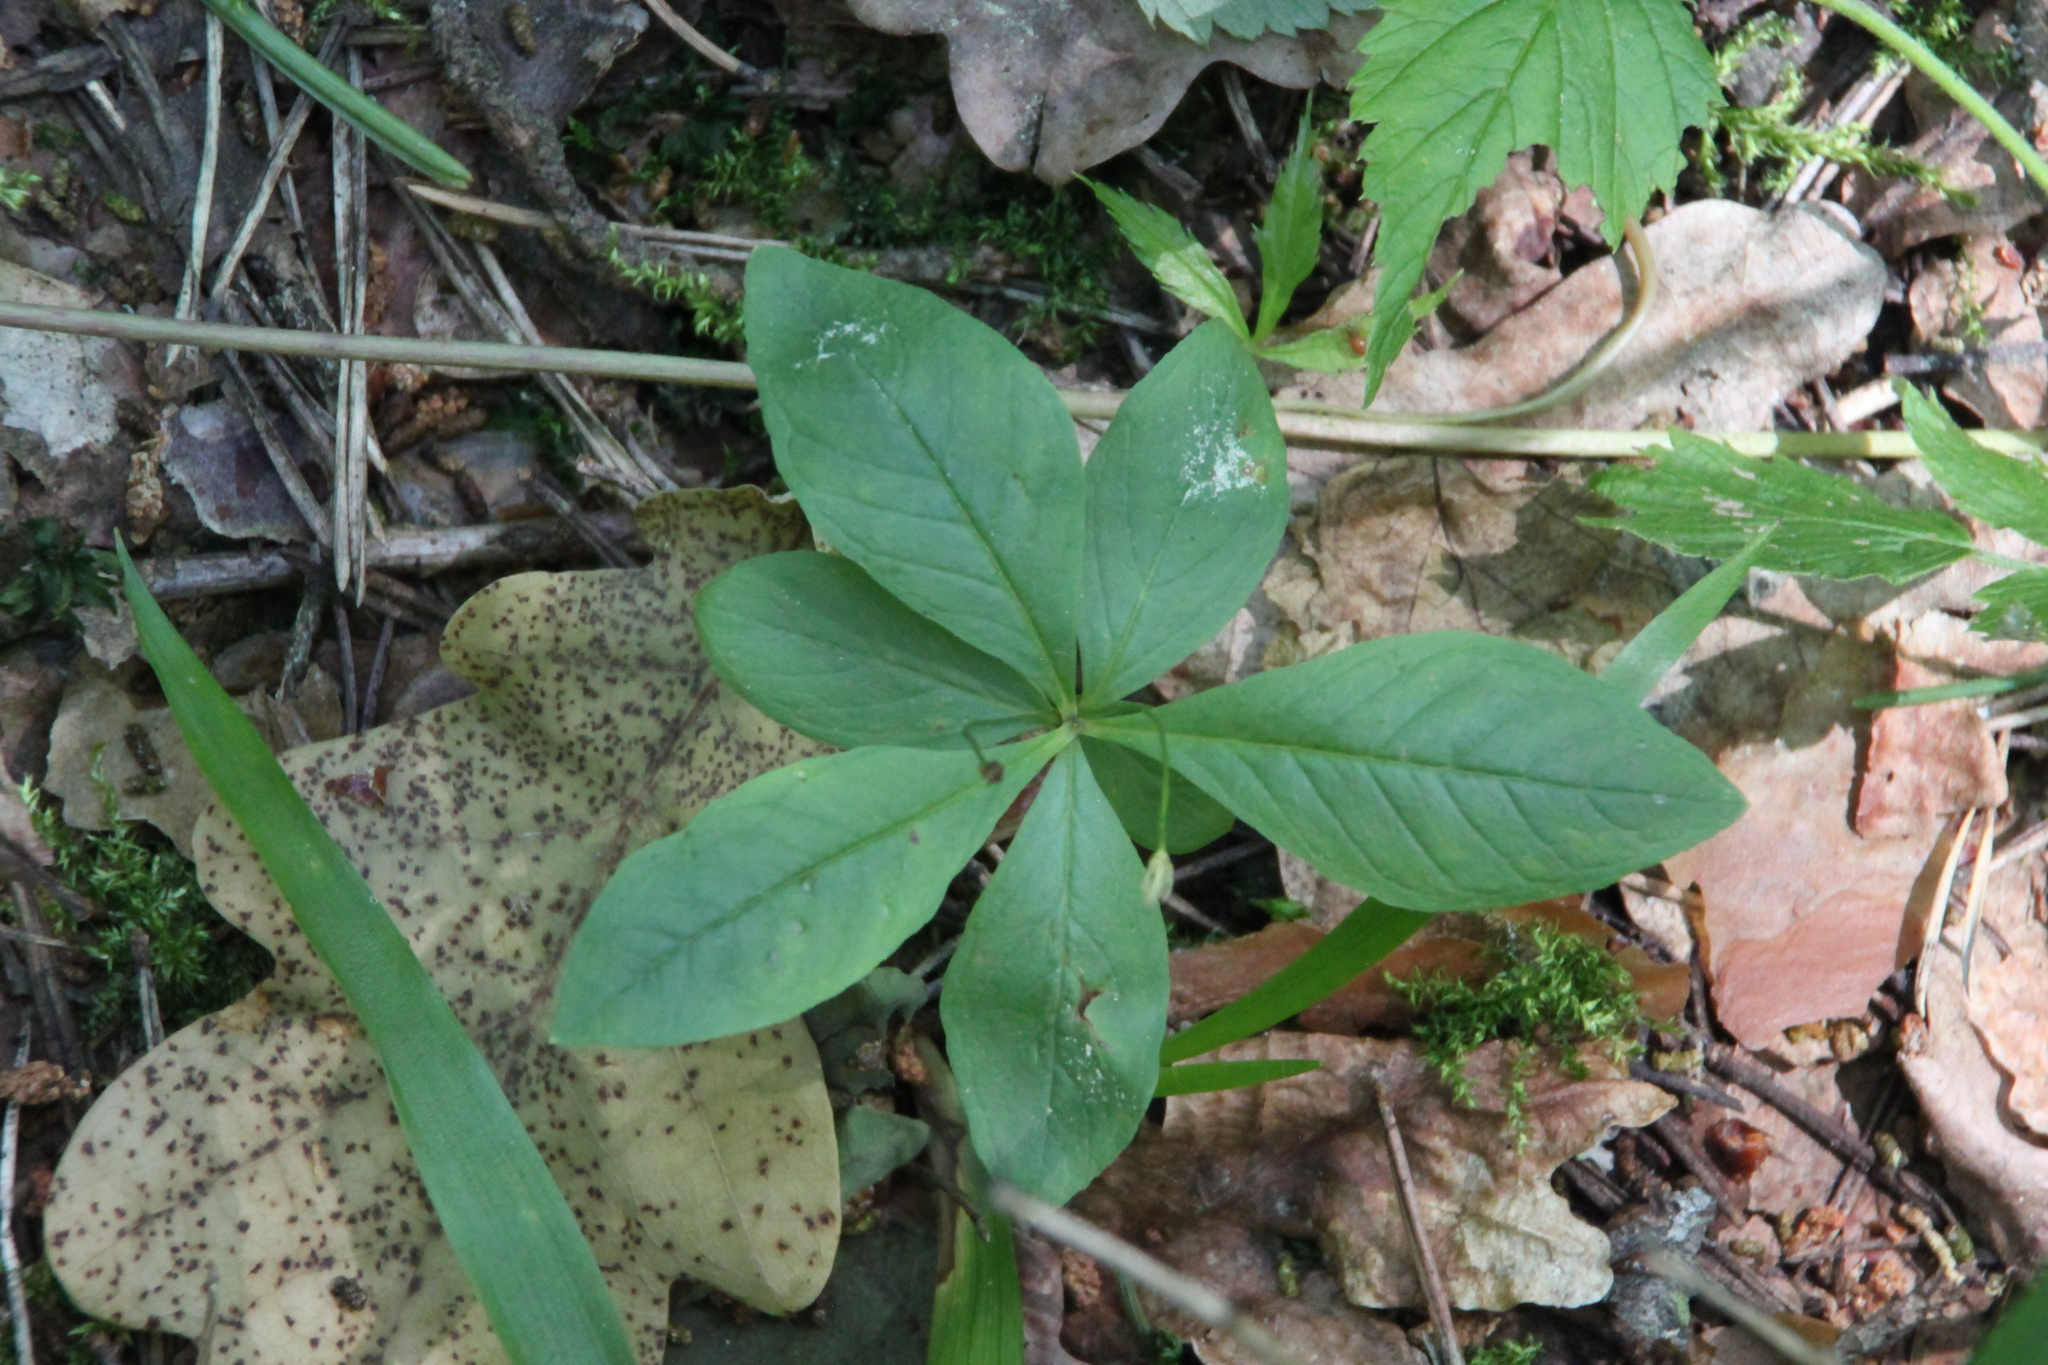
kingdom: Plantae
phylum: Tracheophyta
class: Magnoliopsida
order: Ericales
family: Primulaceae
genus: Lysimachia
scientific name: Lysimachia europaea
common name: Arctic starflower
